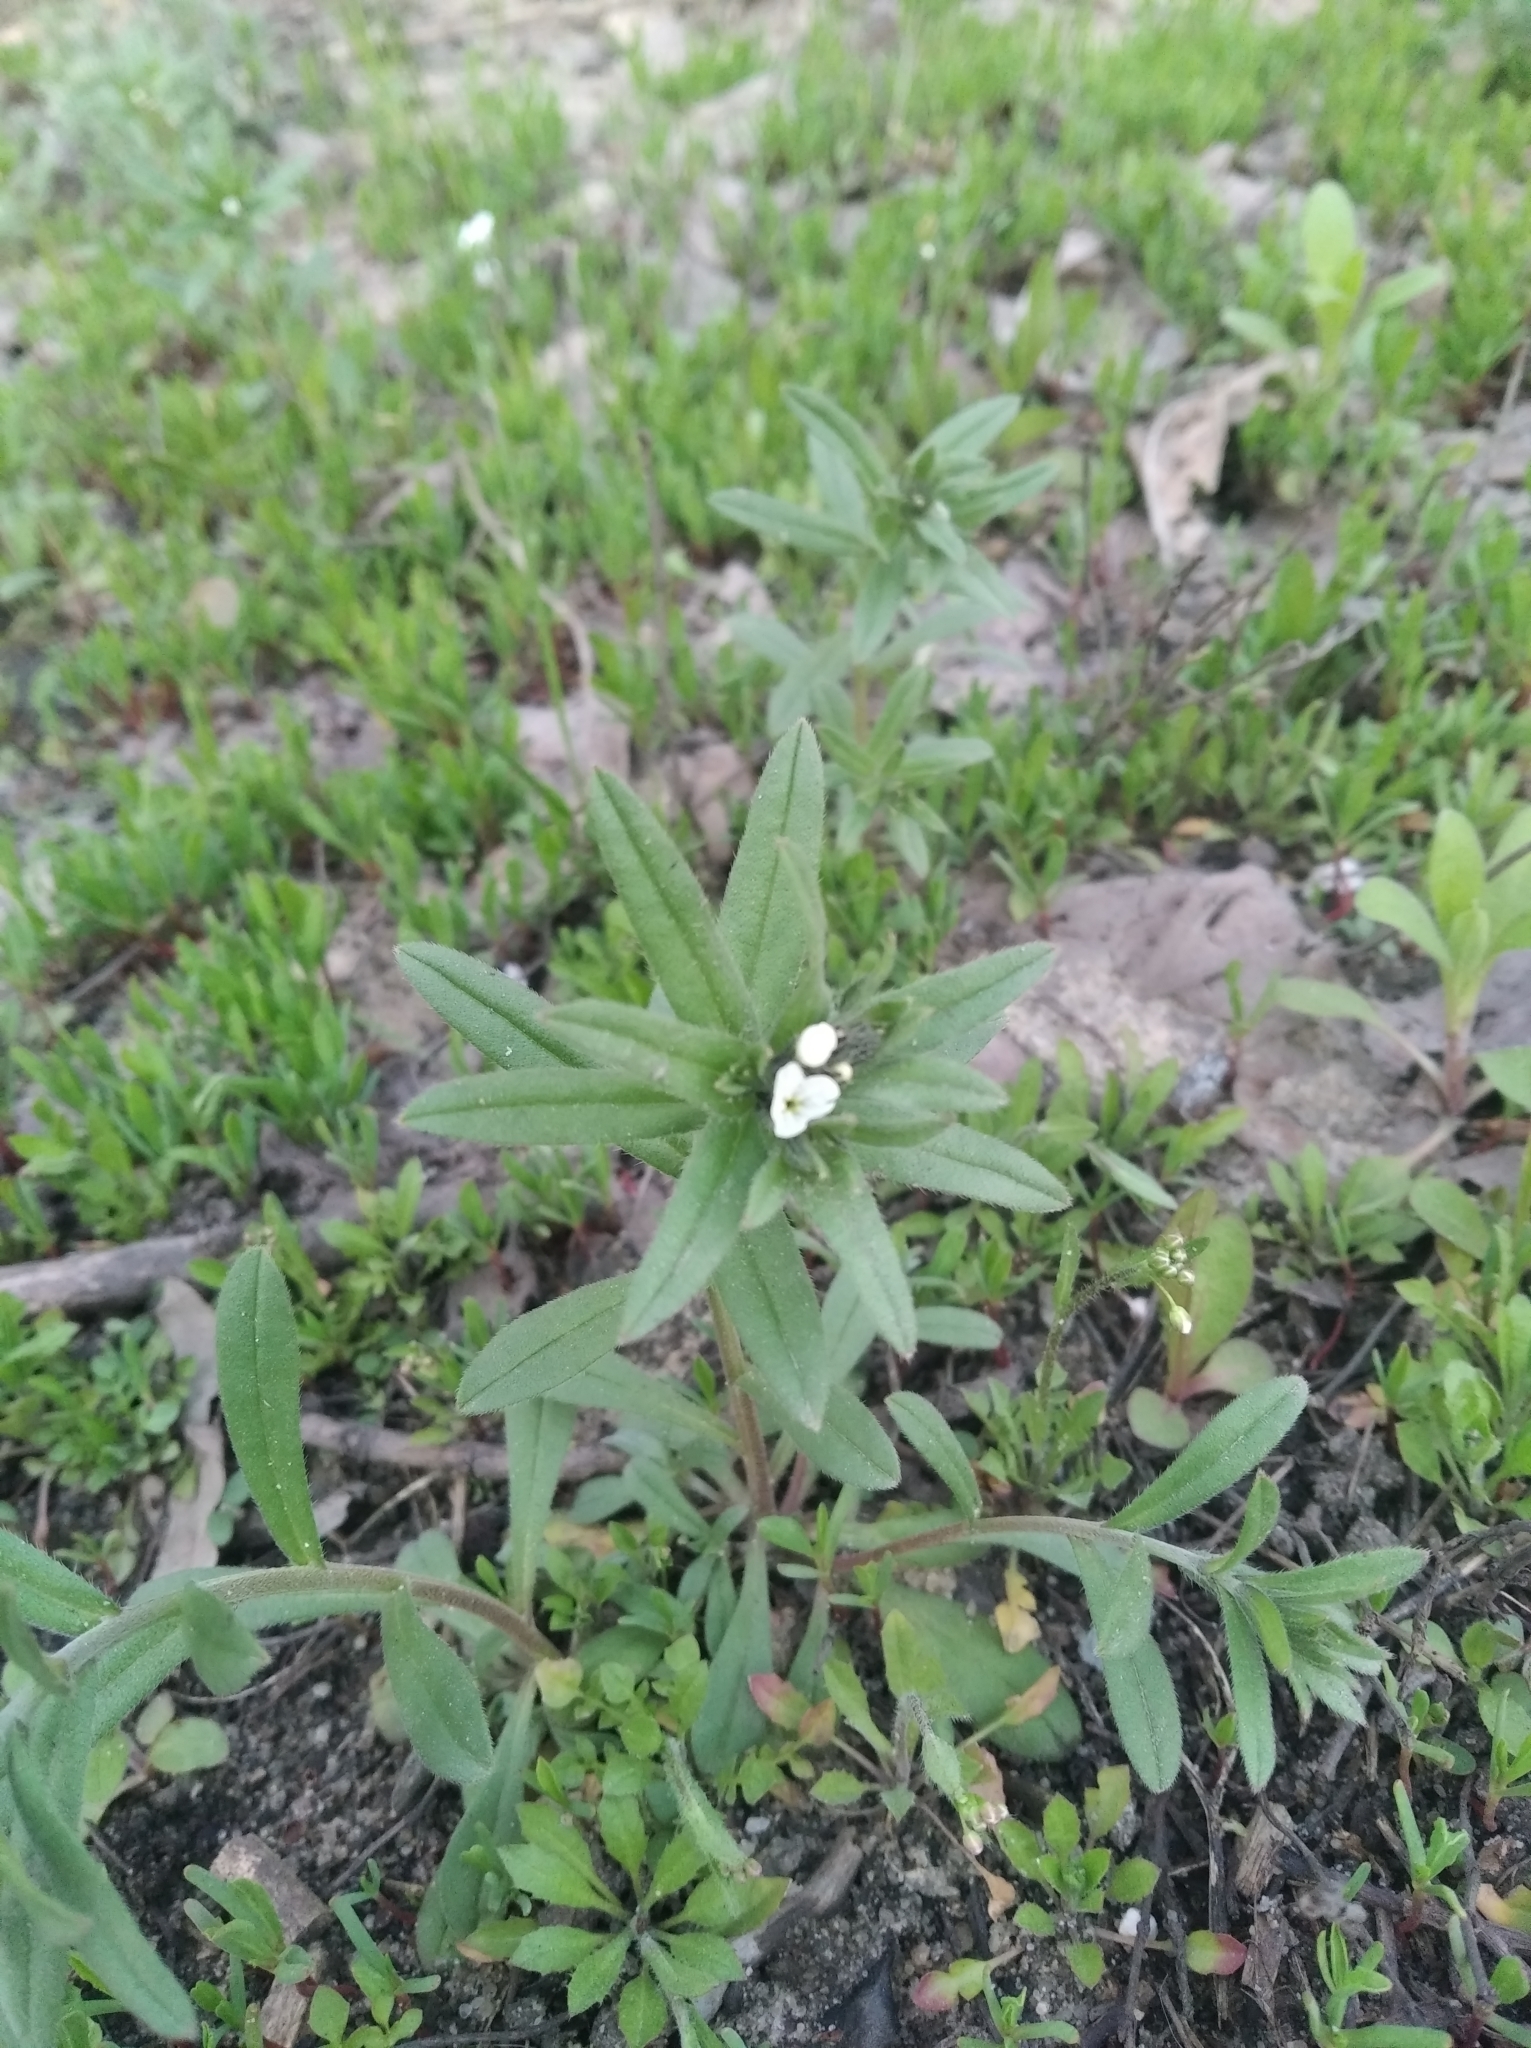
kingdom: Plantae
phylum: Tracheophyta
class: Magnoliopsida
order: Boraginales
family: Boraginaceae
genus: Buglossoides
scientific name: Buglossoides arvensis
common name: Corn gromwell
